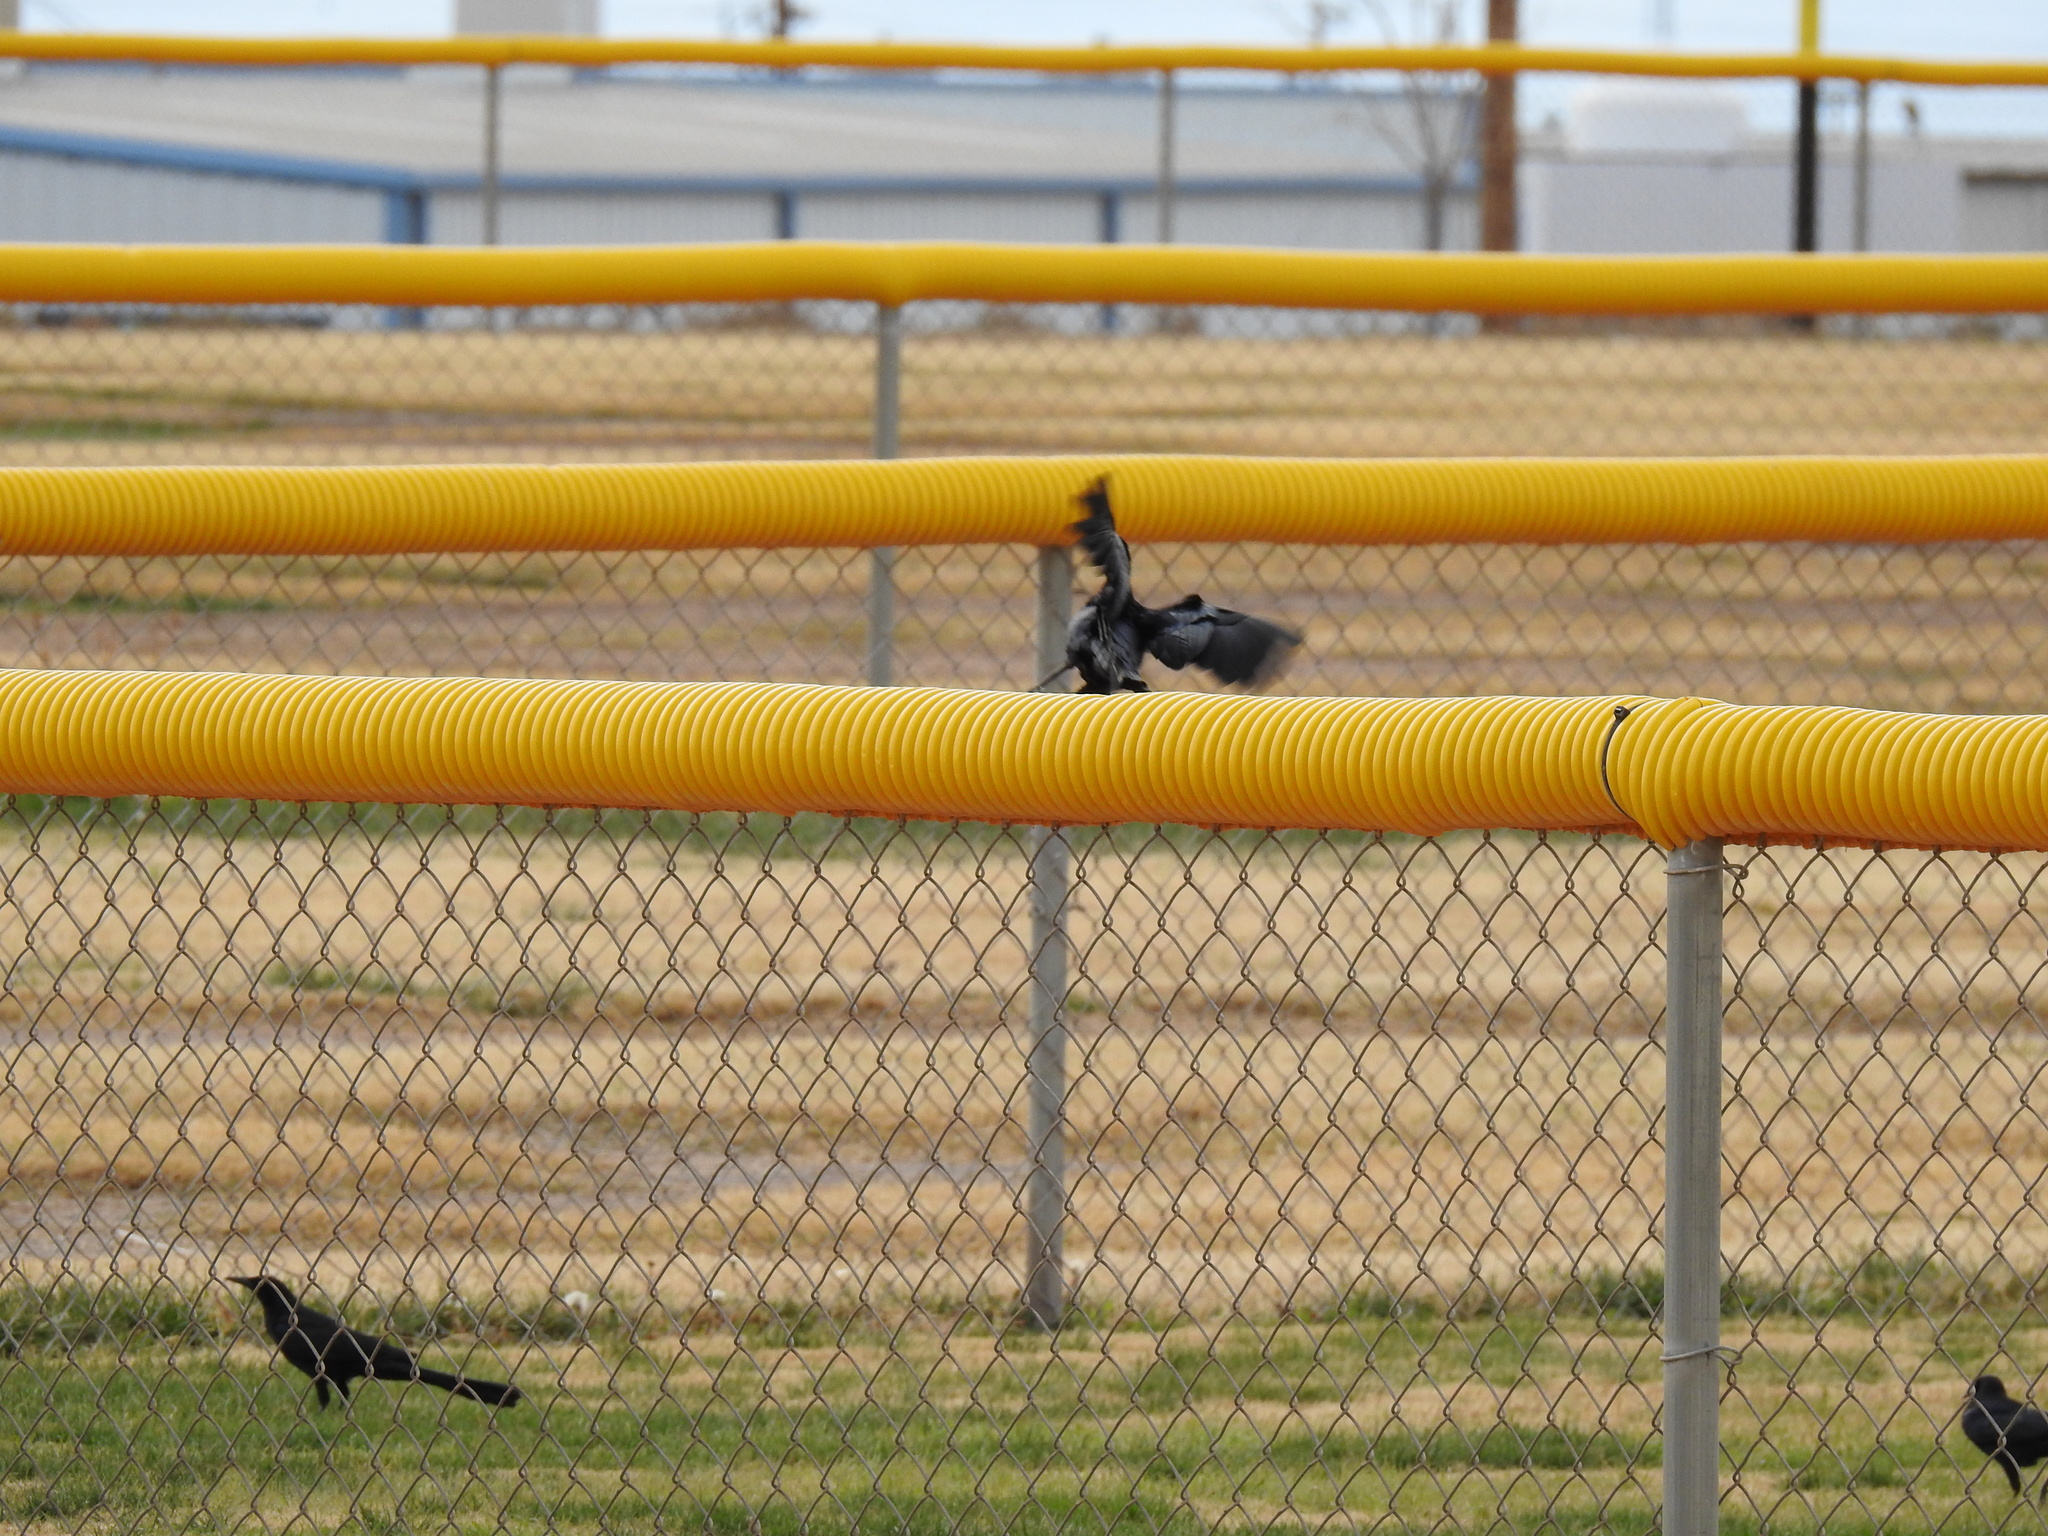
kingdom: Animalia
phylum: Chordata
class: Aves
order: Passeriformes
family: Icteridae
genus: Quiscalus
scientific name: Quiscalus mexicanus
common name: Great-tailed grackle
